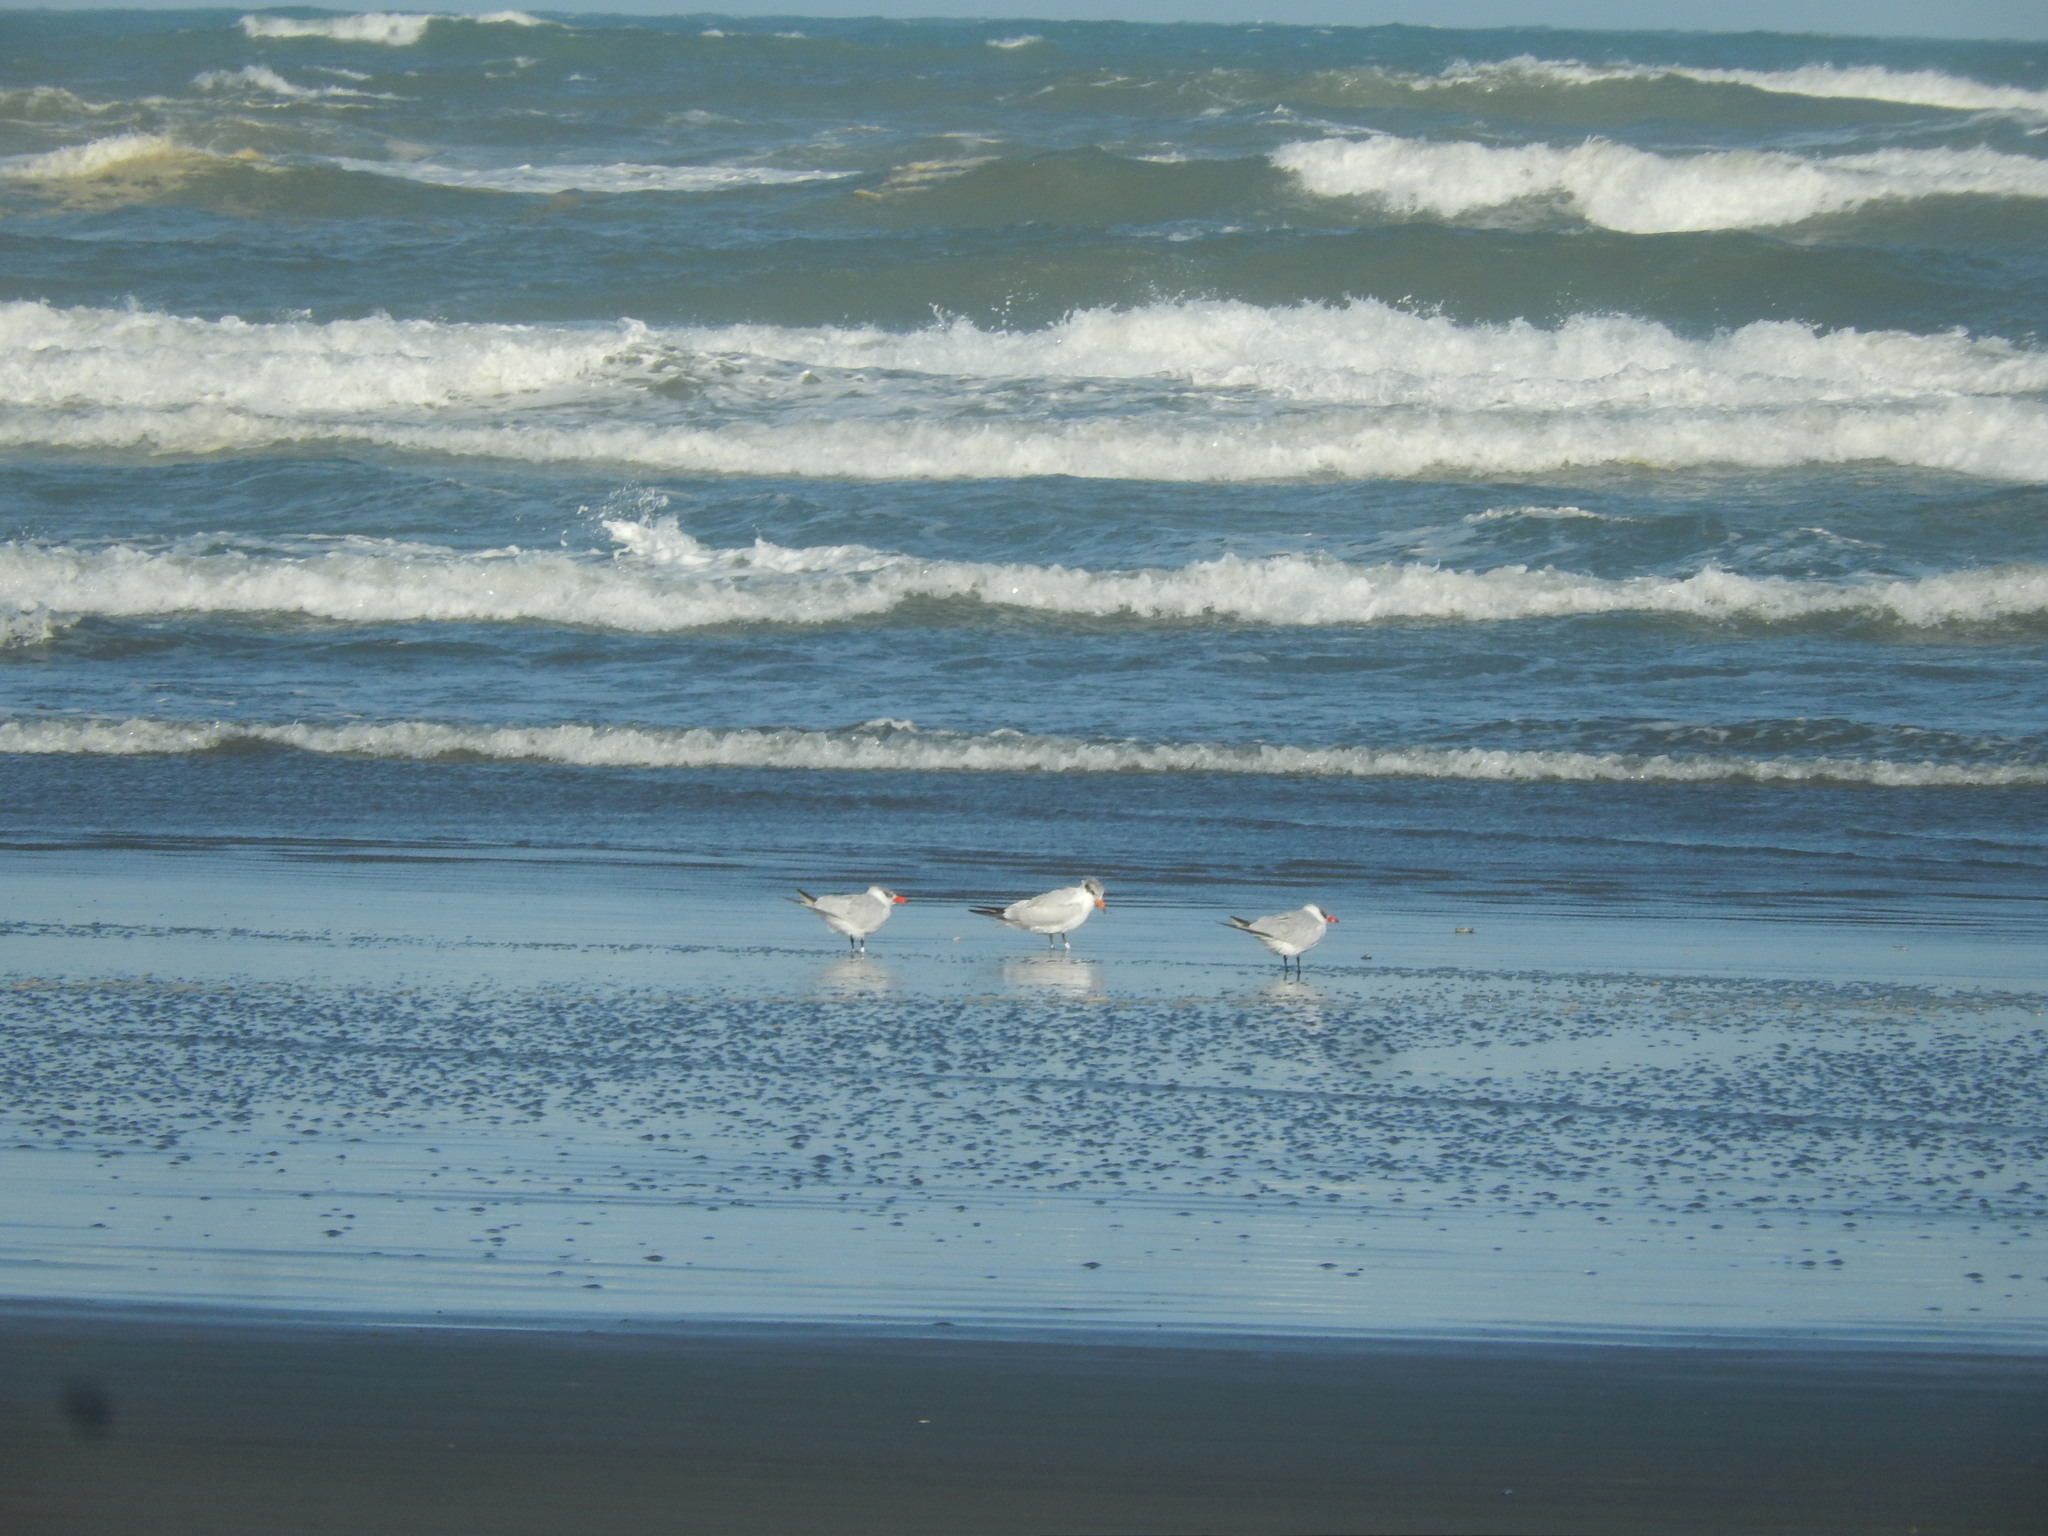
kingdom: Animalia
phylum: Chordata
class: Aves
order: Charadriiformes
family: Laridae
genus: Hydroprogne
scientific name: Hydroprogne caspia
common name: Caspian tern
